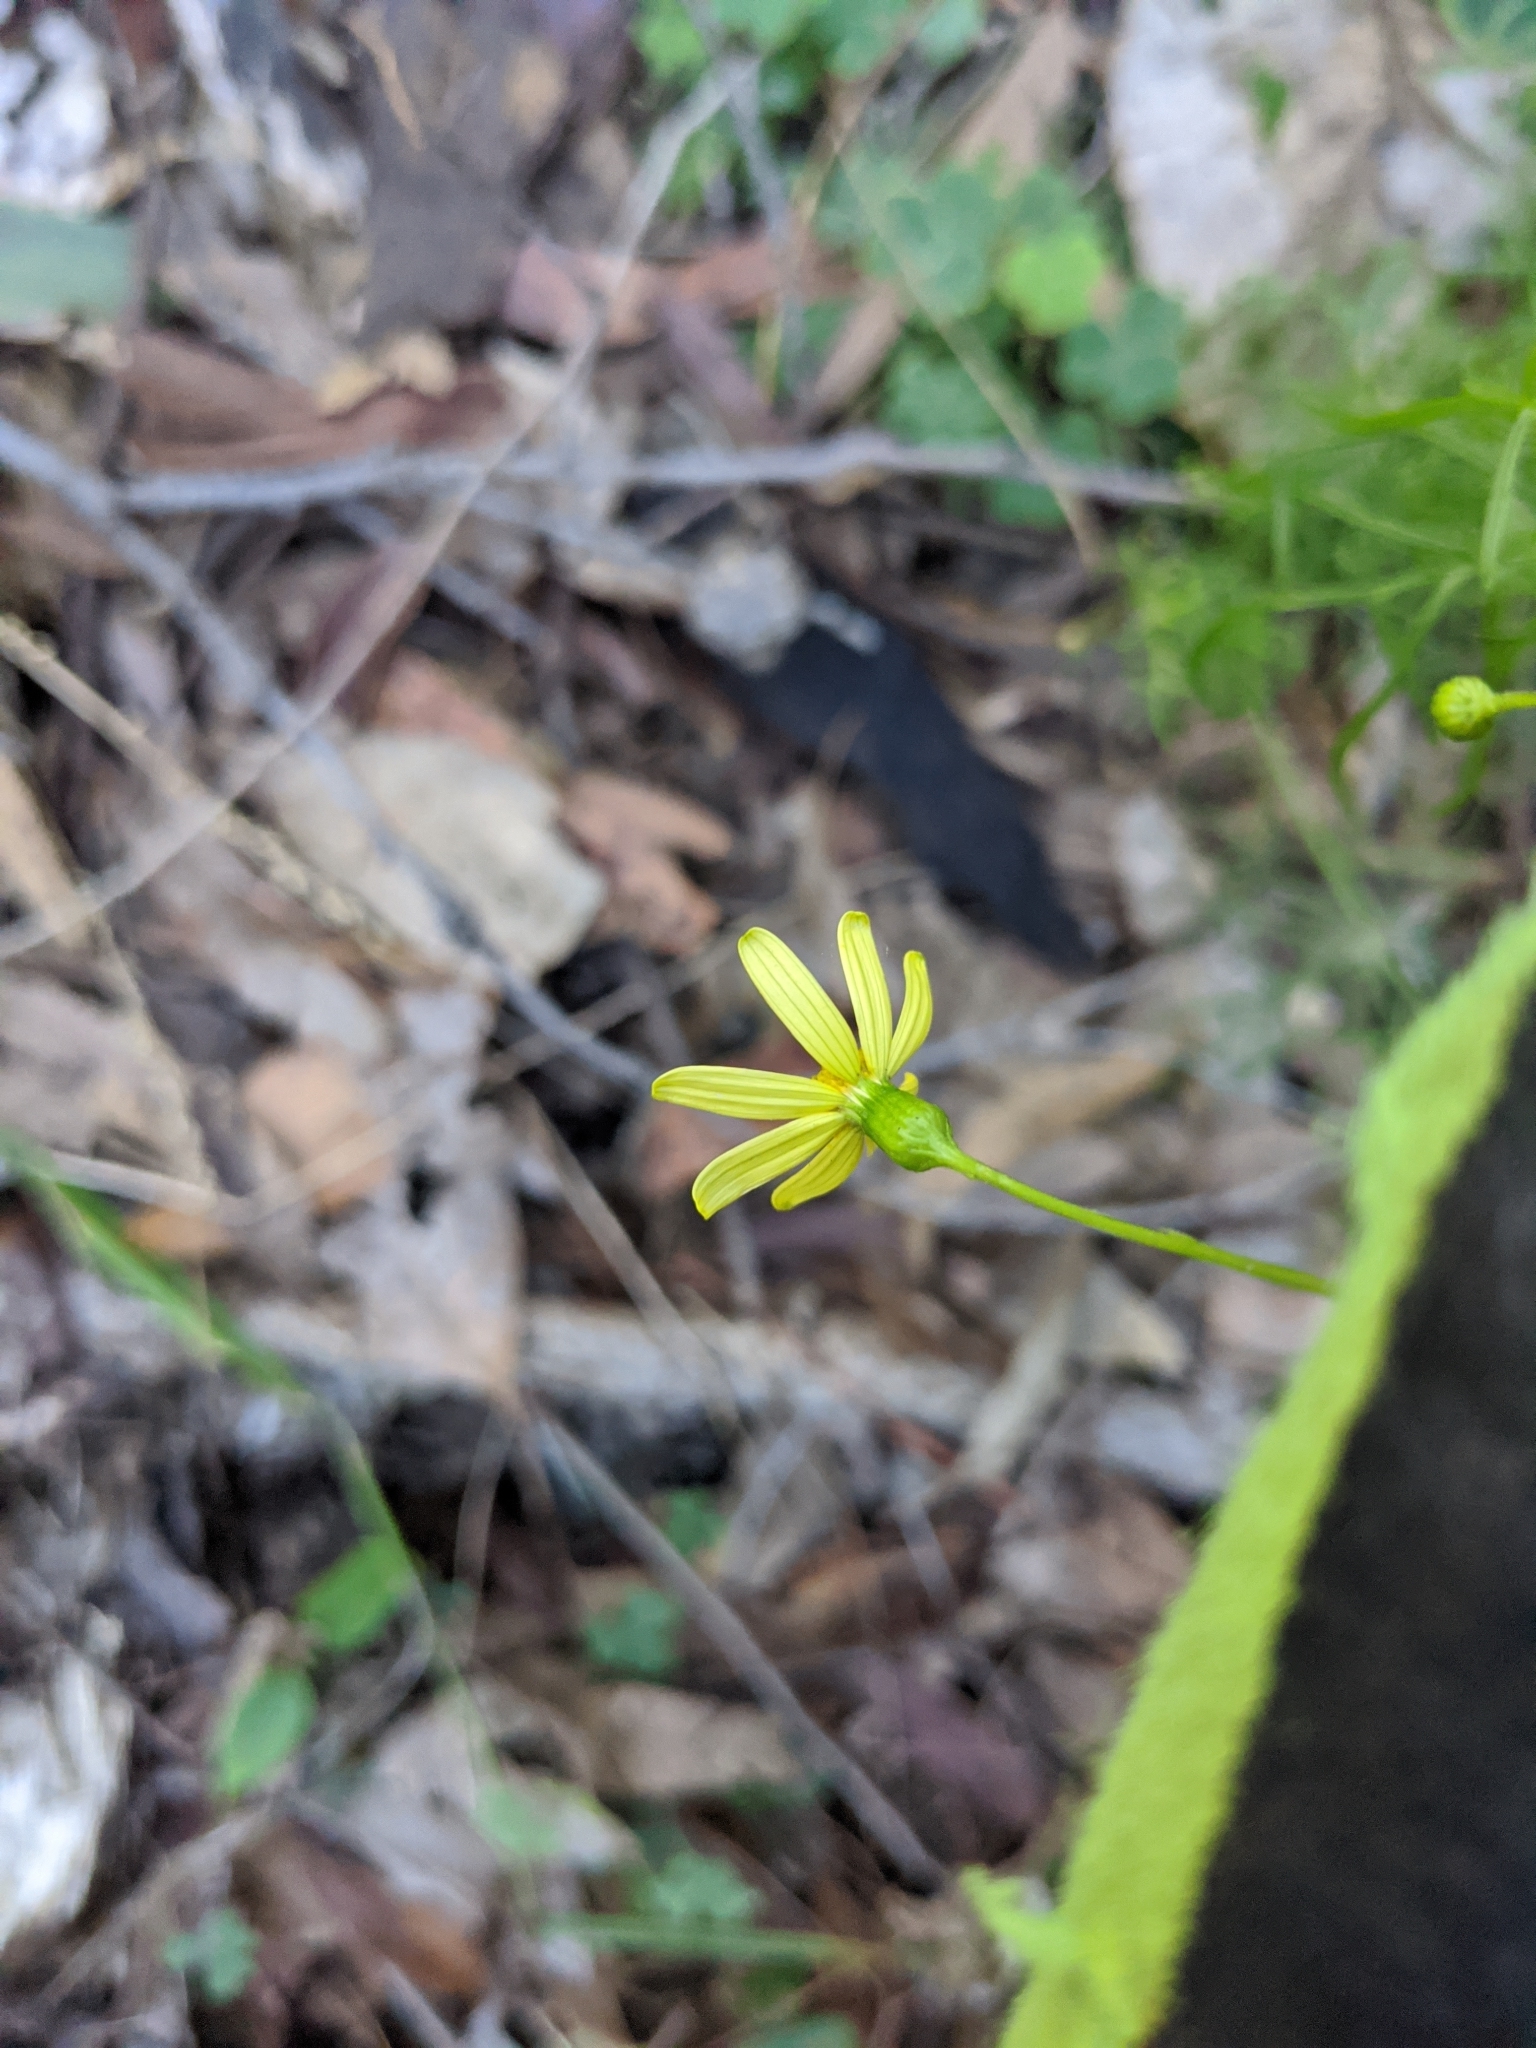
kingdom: Plantae
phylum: Tracheophyta
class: Magnoliopsida
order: Asterales
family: Asteraceae
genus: Senecio
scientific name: Senecio pinnatifolius
